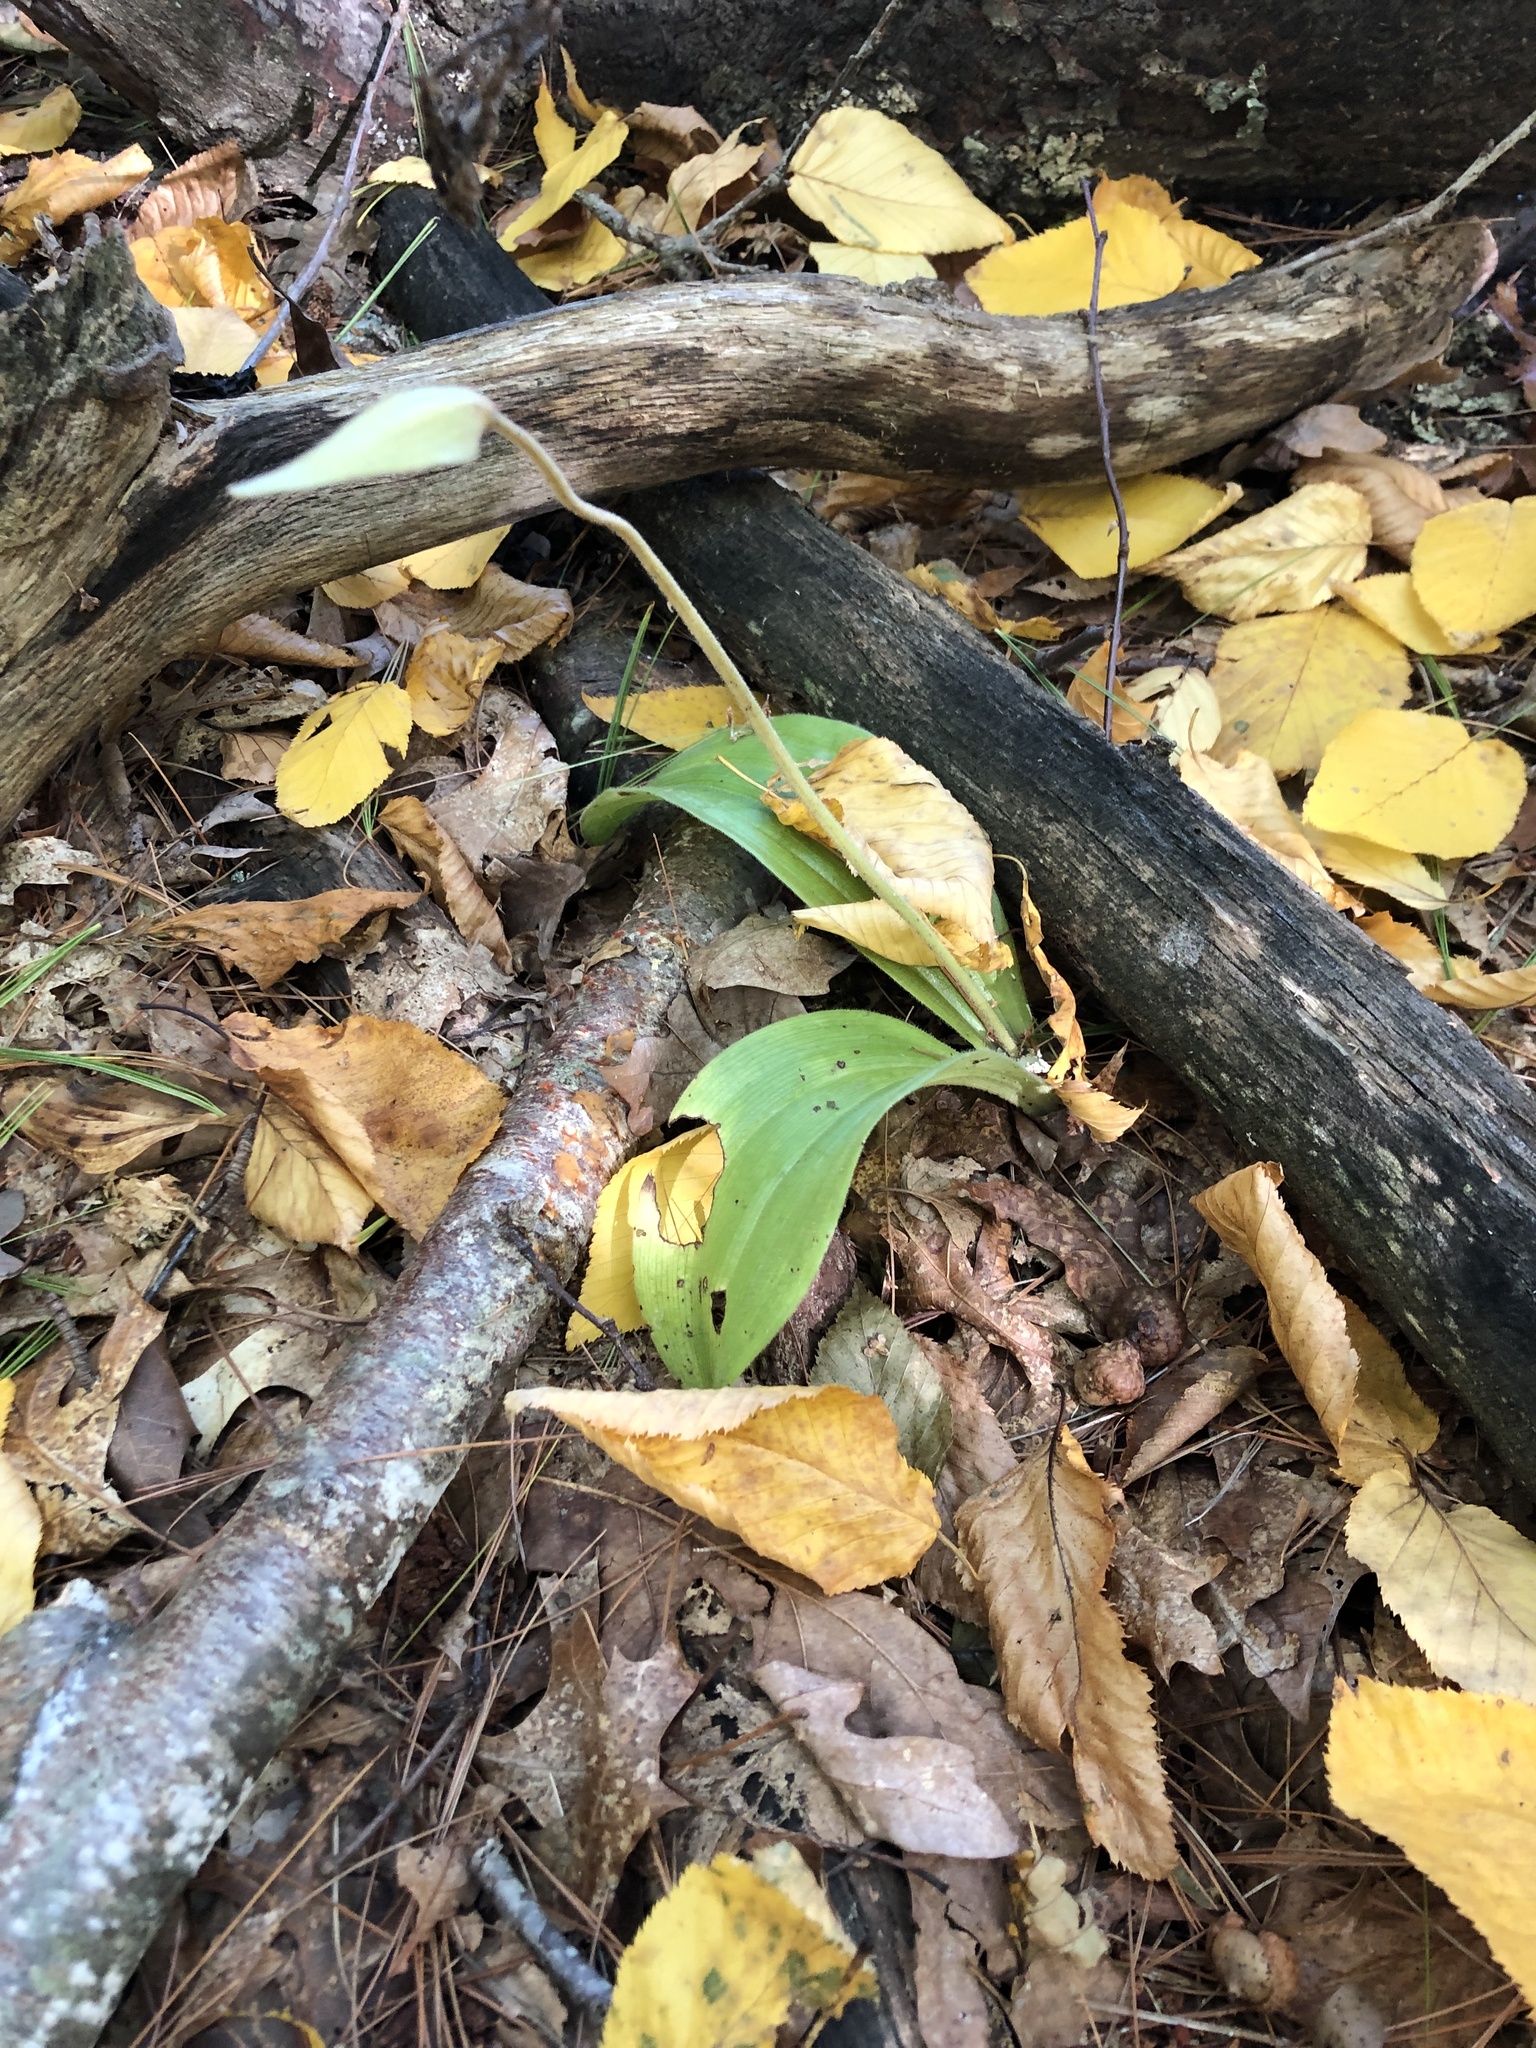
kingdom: Plantae
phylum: Tracheophyta
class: Liliopsida
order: Asparagales
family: Orchidaceae
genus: Cypripedium
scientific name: Cypripedium acaule
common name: Pink lady's-slipper
